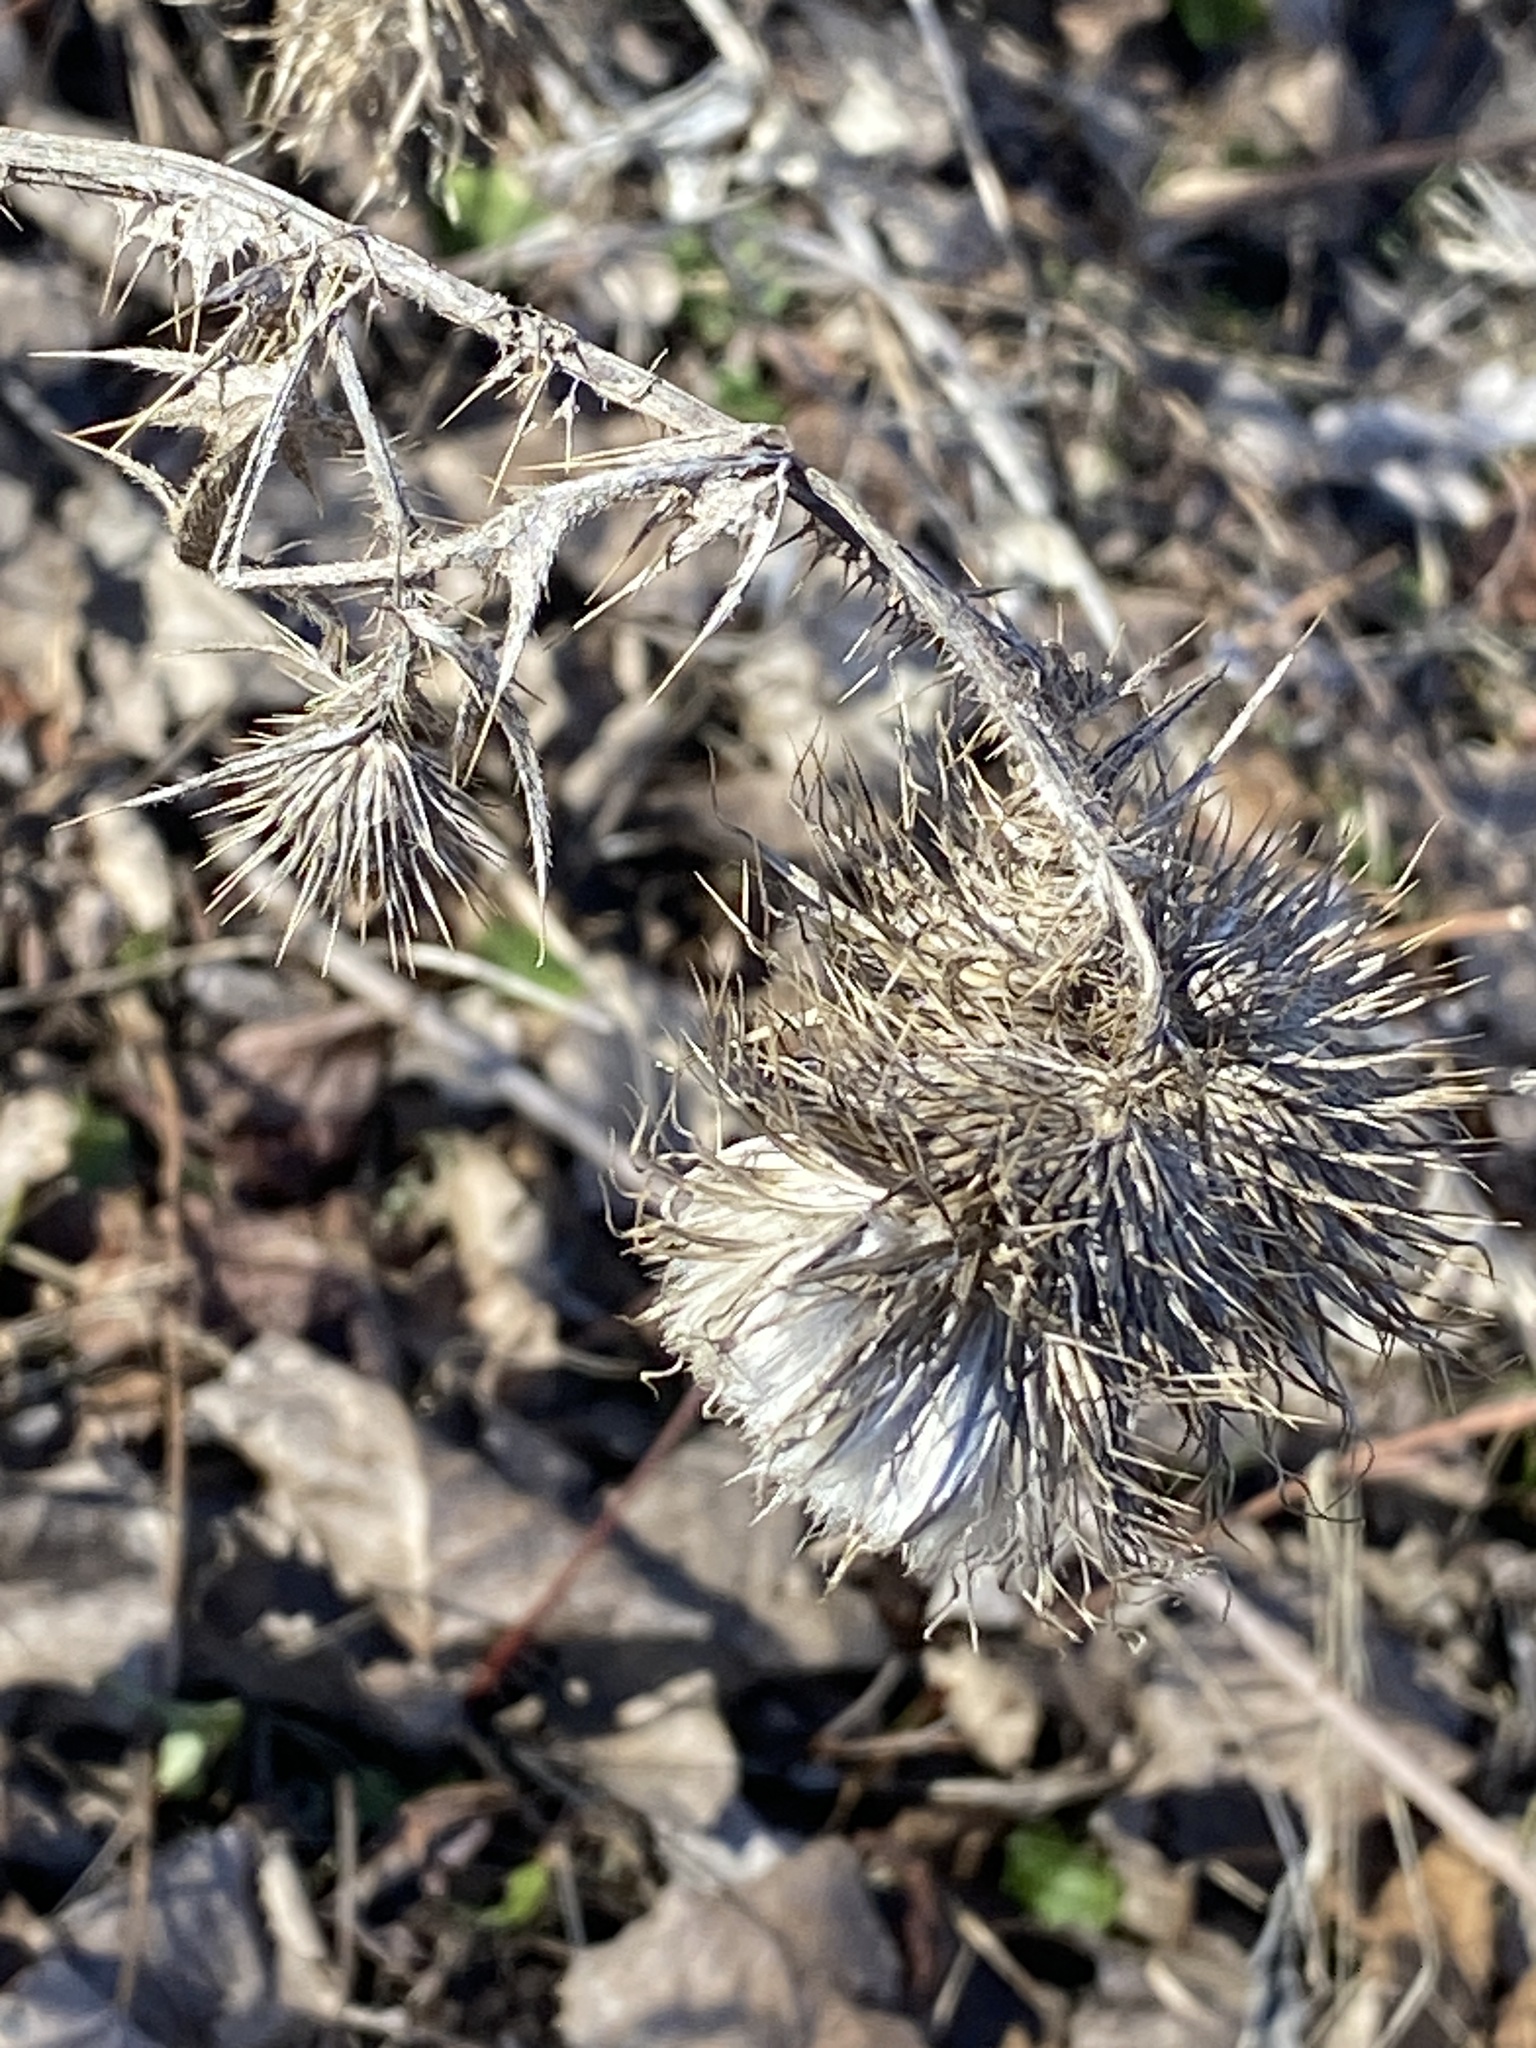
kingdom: Plantae
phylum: Tracheophyta
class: Magnoliopsida
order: Asterales
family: Asteraceae
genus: Cirsium
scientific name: Cirsium vulgare
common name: Bull thistle
